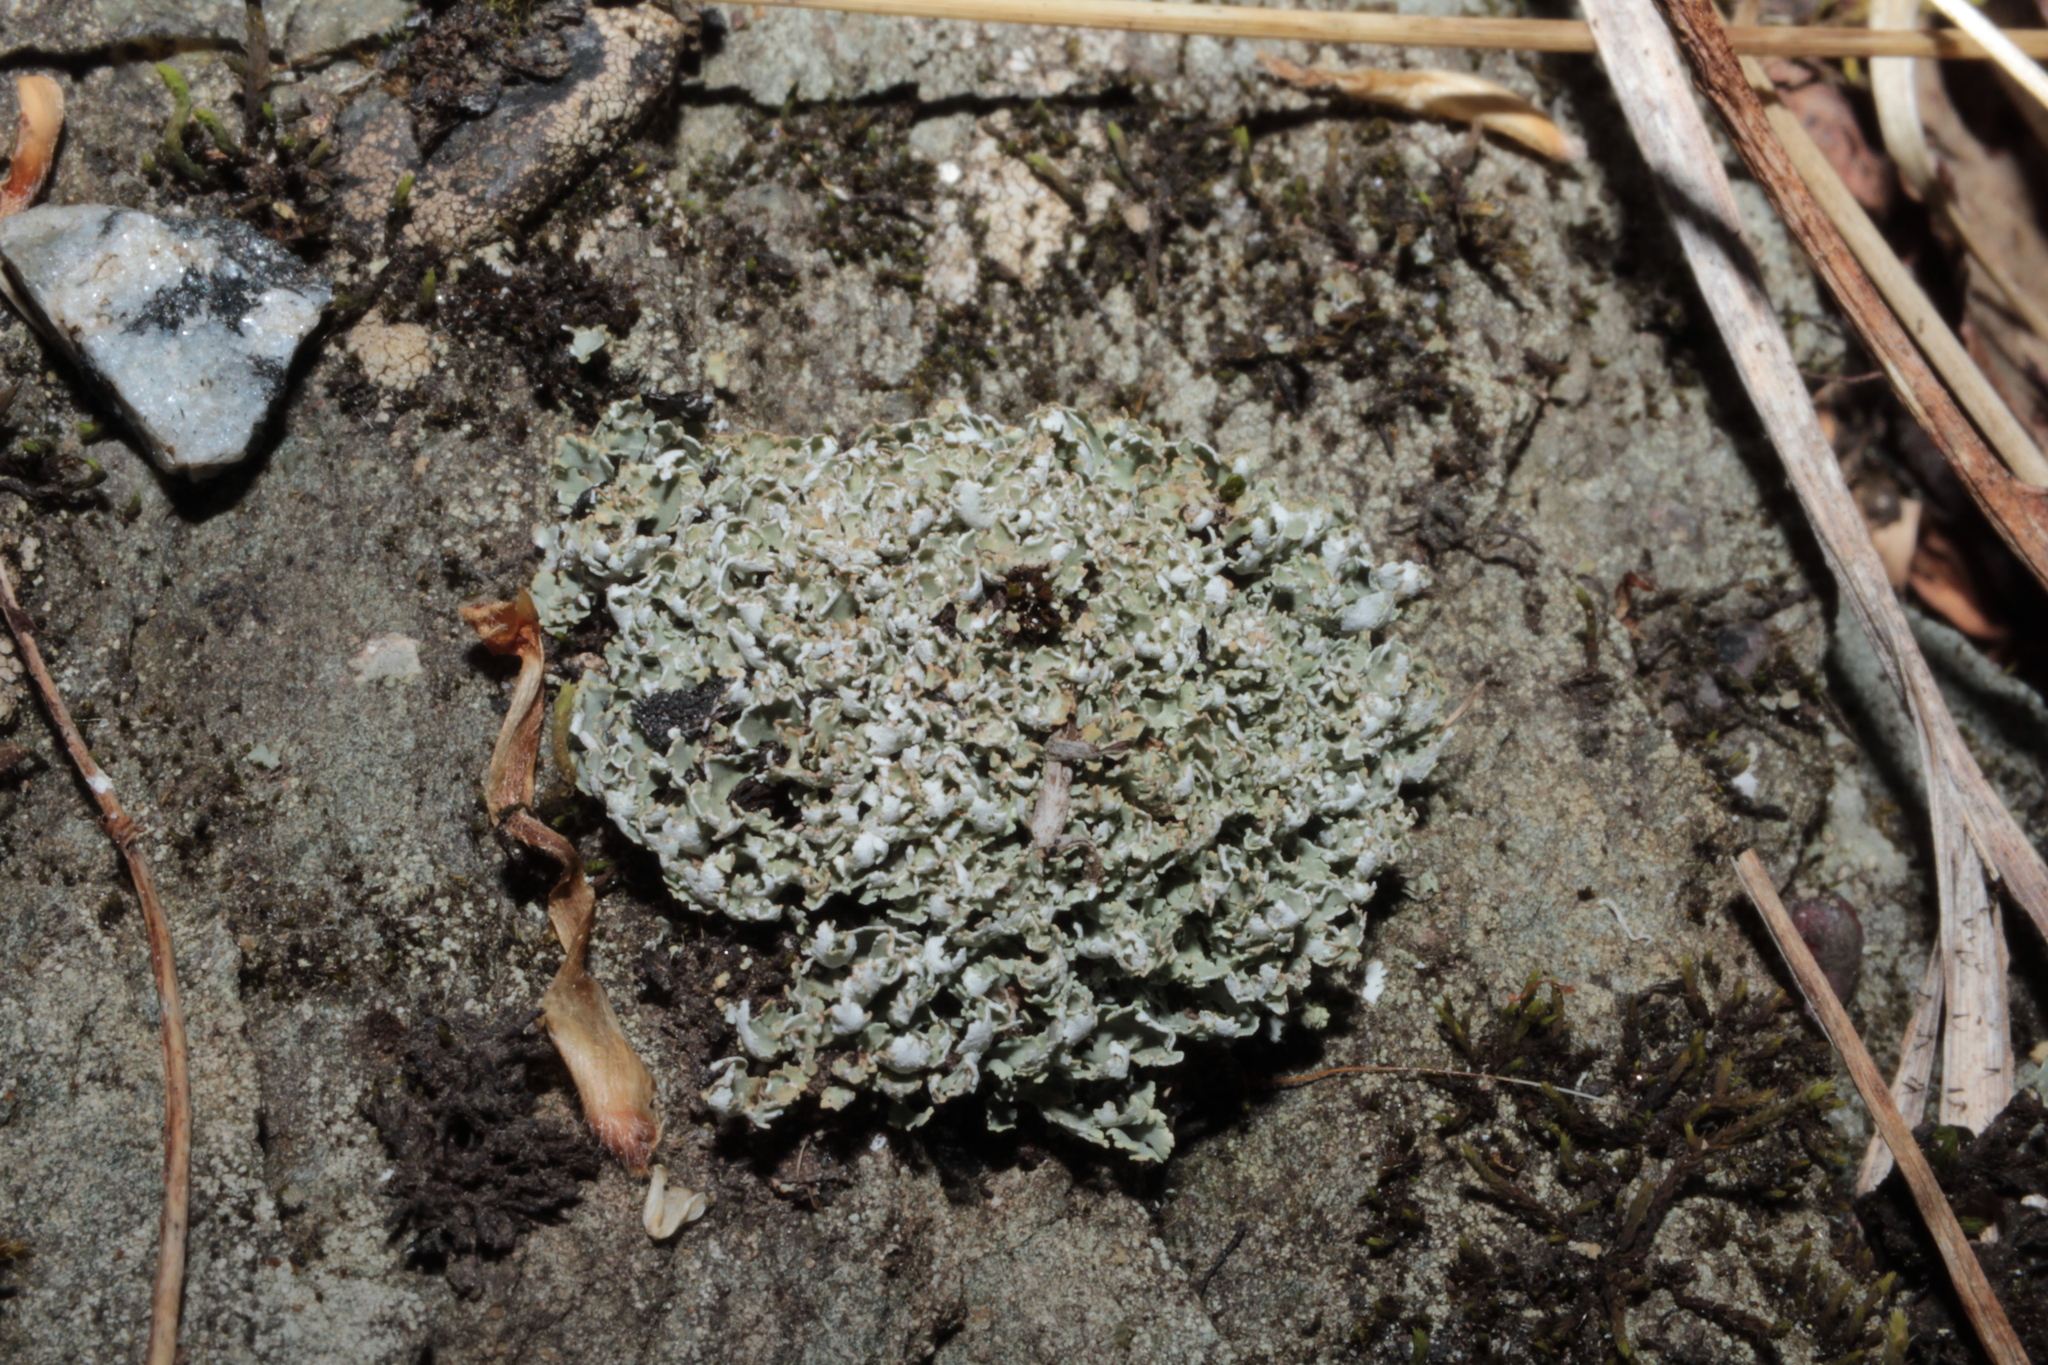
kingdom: Fungi
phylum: Ascomycota
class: Lecanoromycetes
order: Lecanorales
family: Cladoniaceae
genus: Cladonia
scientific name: Cladonia apodocarpa
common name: Stalkless cladonia
